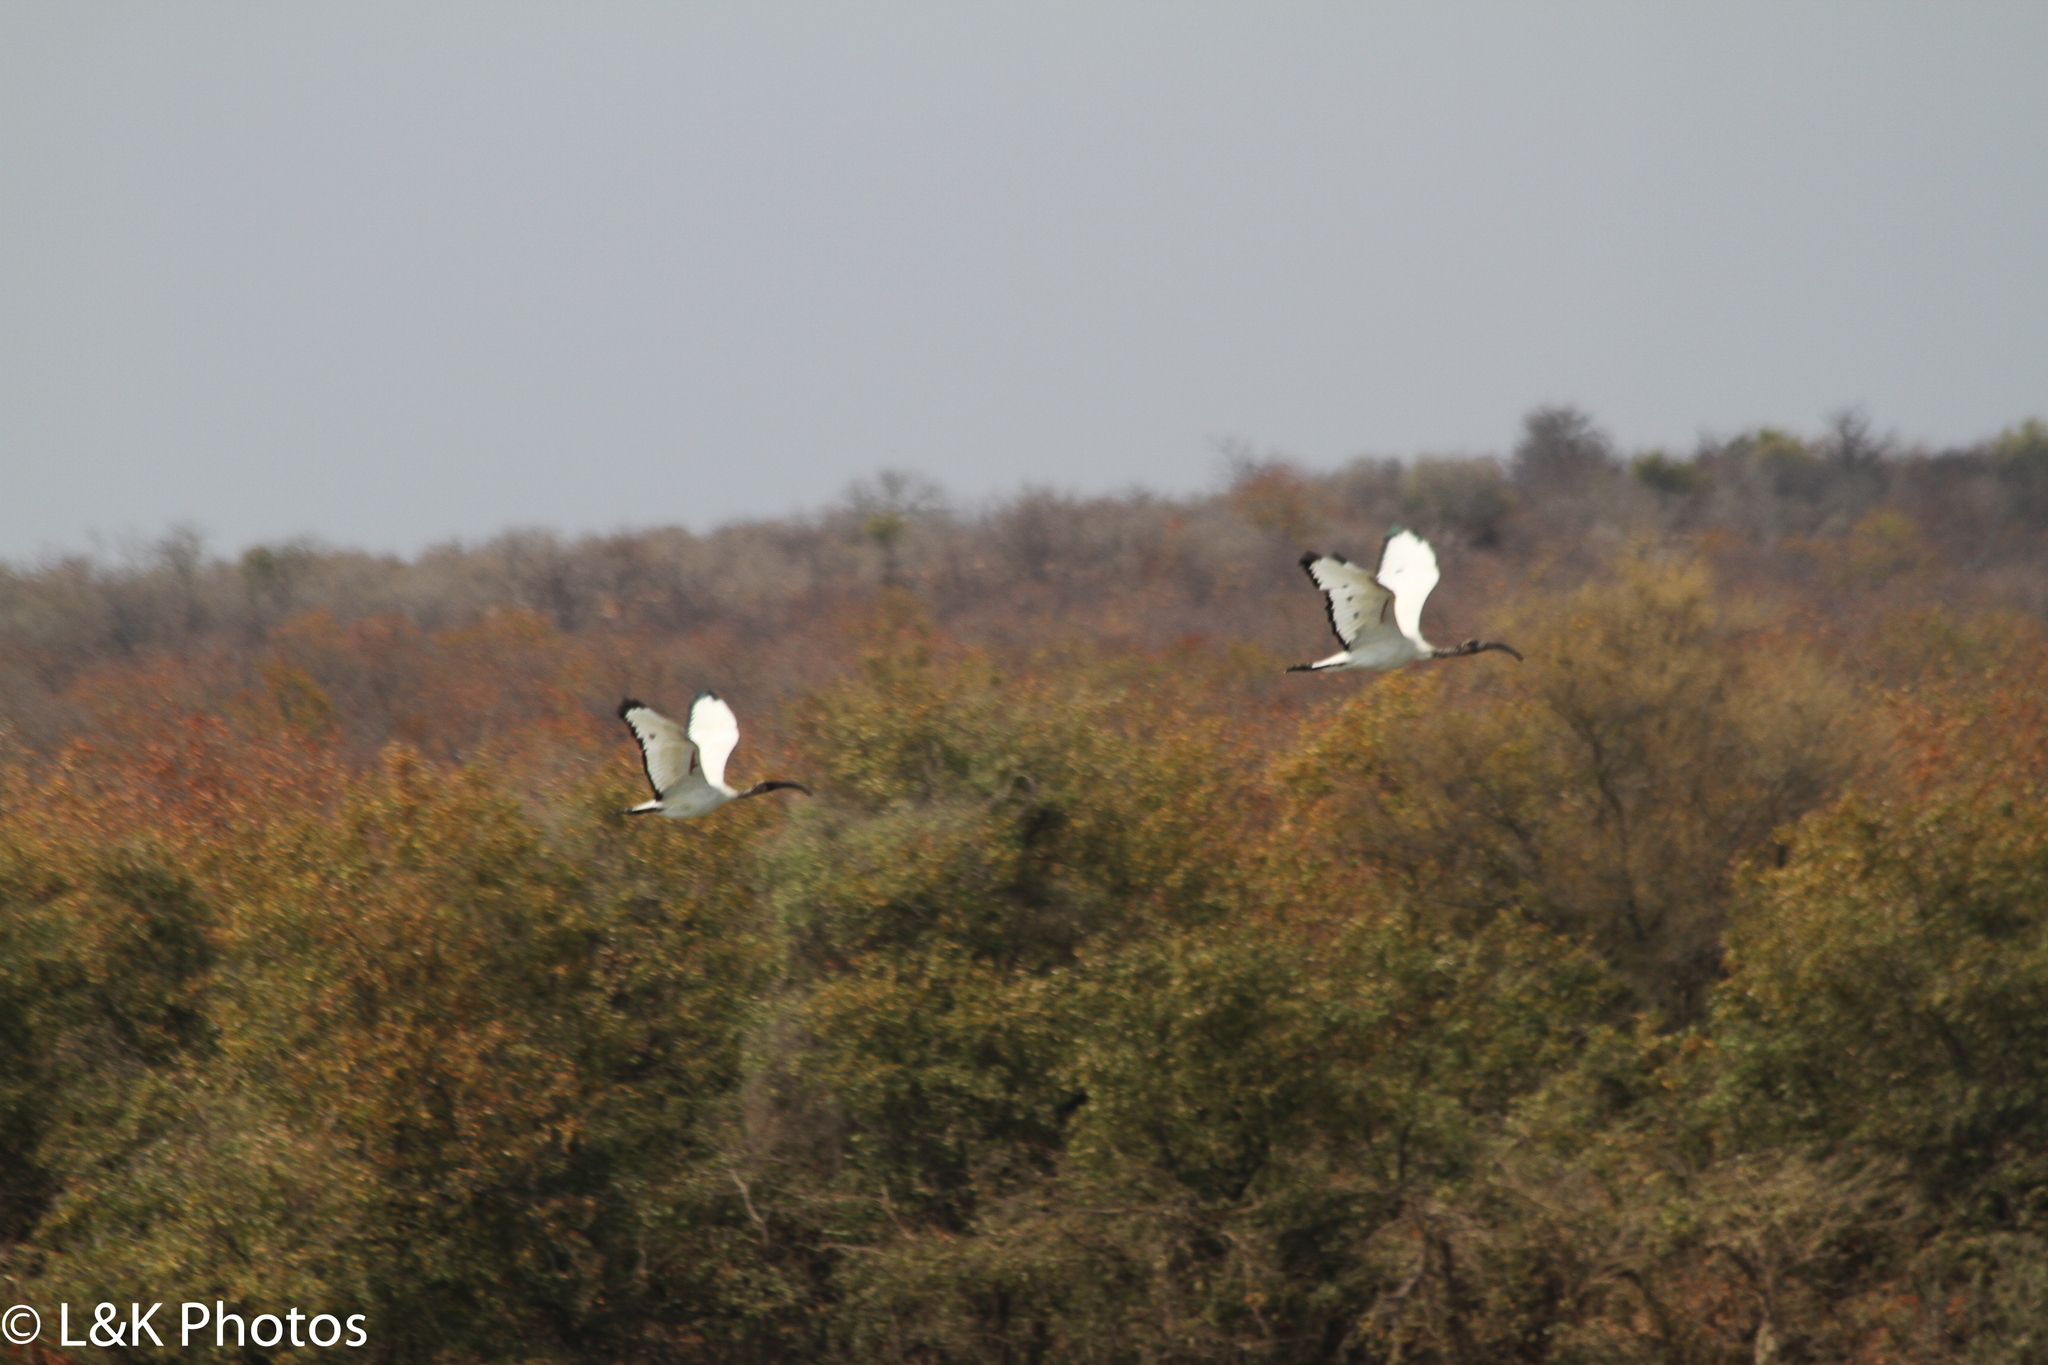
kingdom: Animalia
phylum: Chordata
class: Aves
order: Pelecaniformes
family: Threskiornithidae
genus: Threskiornis
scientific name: Threskiornis aethiopicus
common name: Sacred ibis
